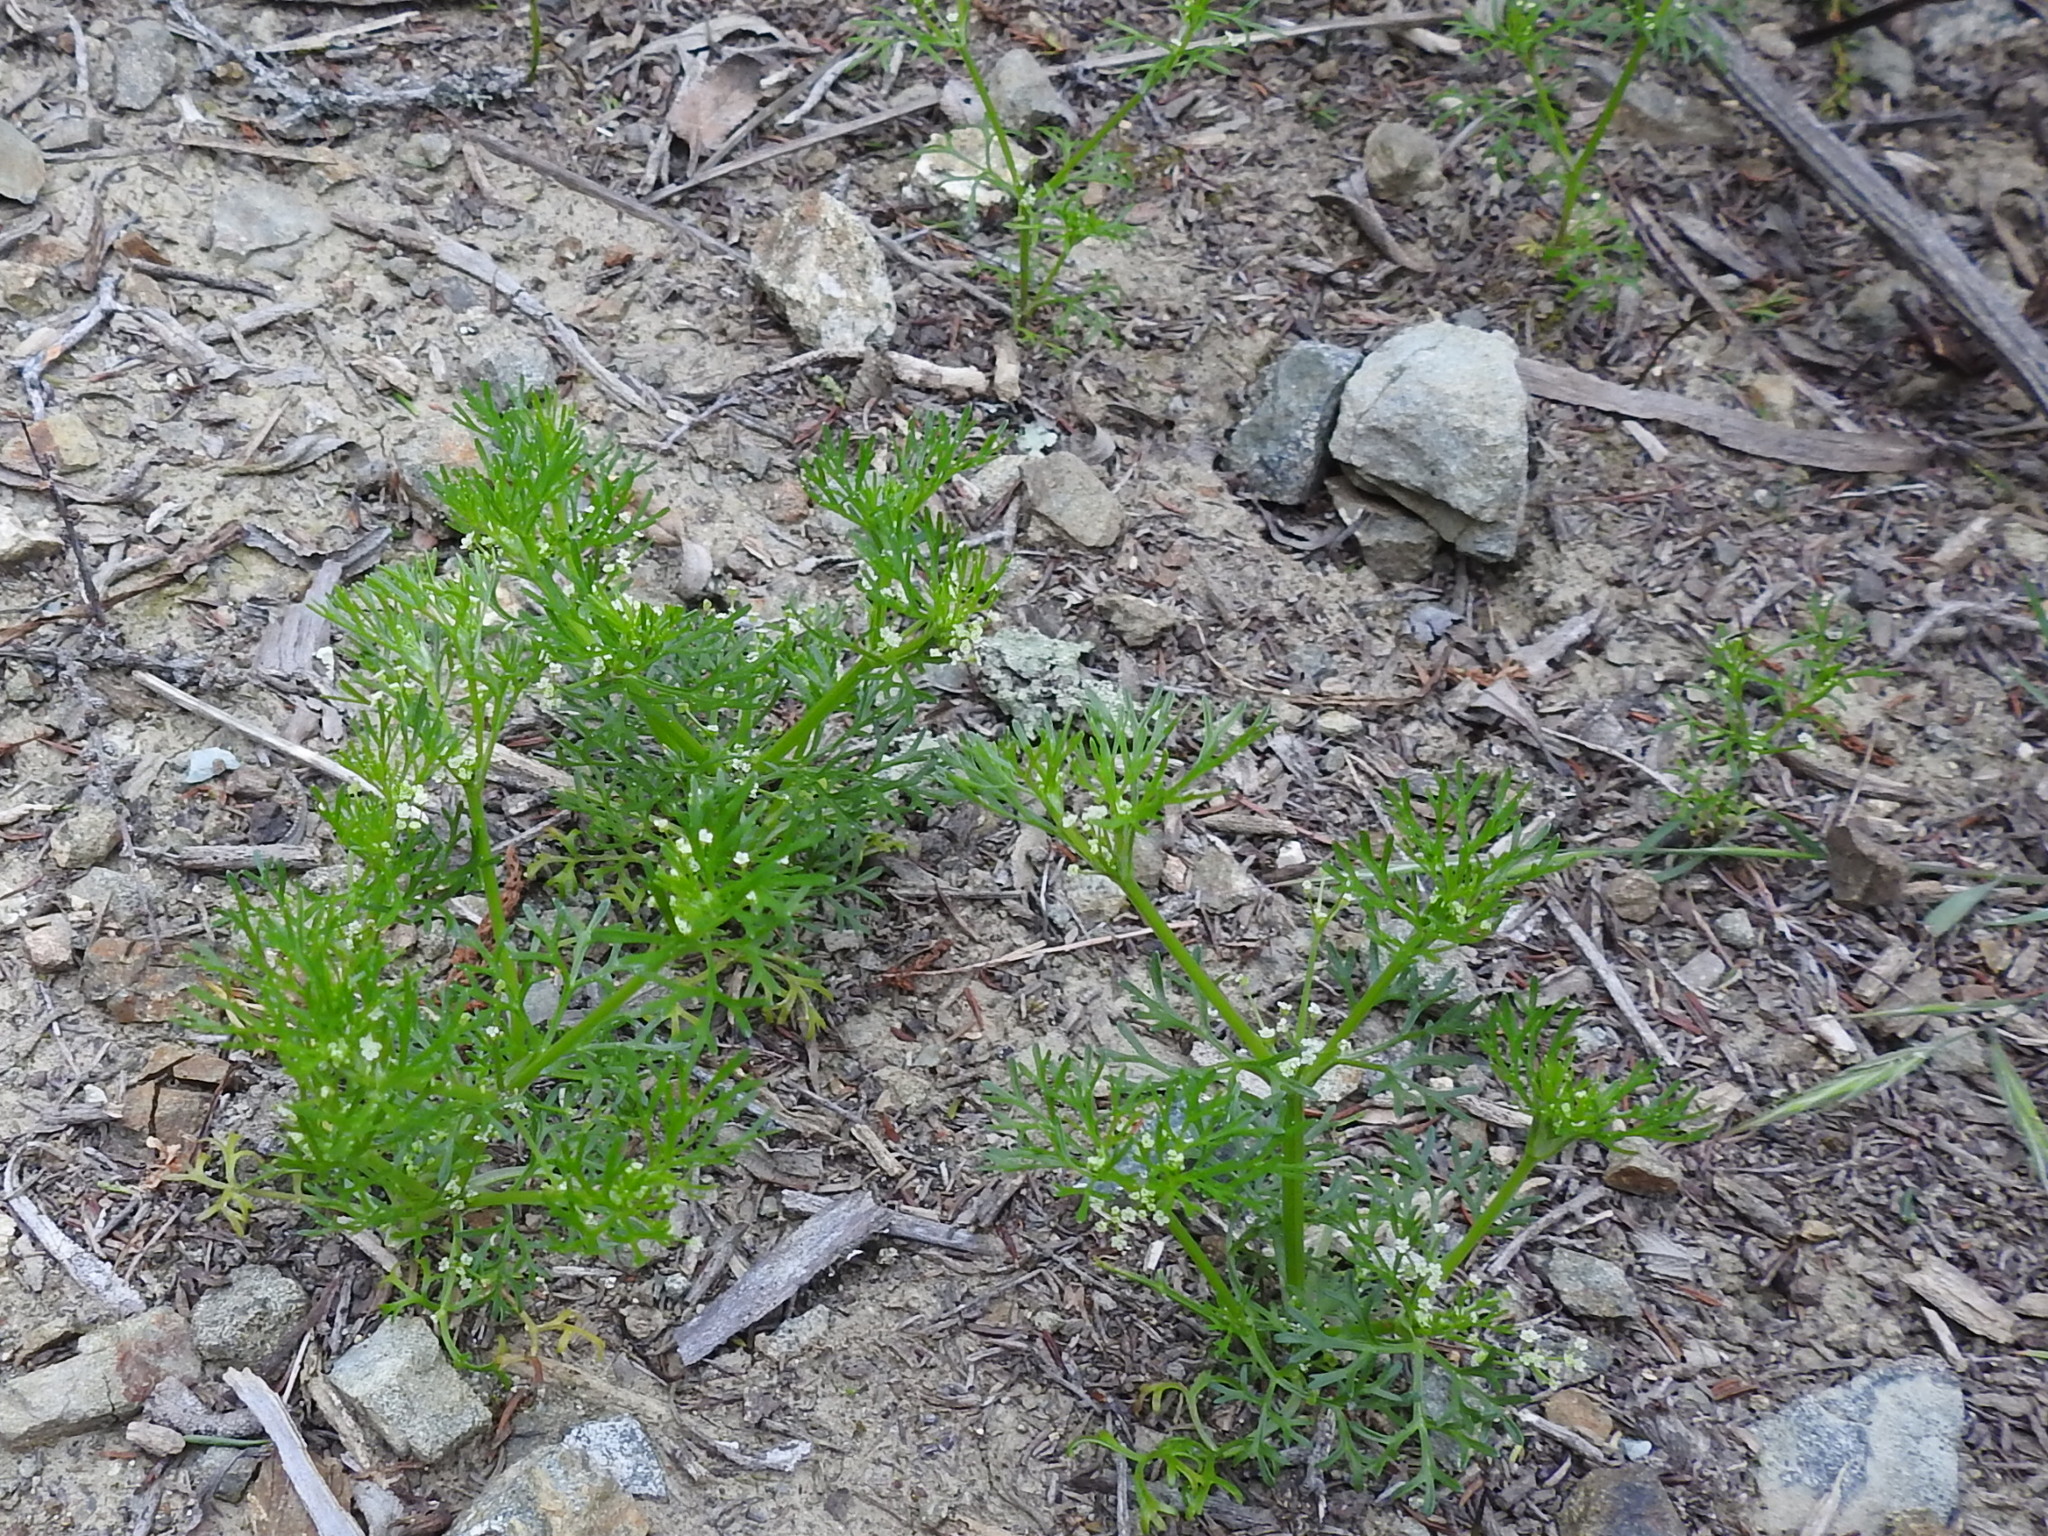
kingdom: Plantae
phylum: Tracheophyta
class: Magnoliopsida
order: Apiales
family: Apiaceae
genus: Apiastrum
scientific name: Apiastrum angustifolium
